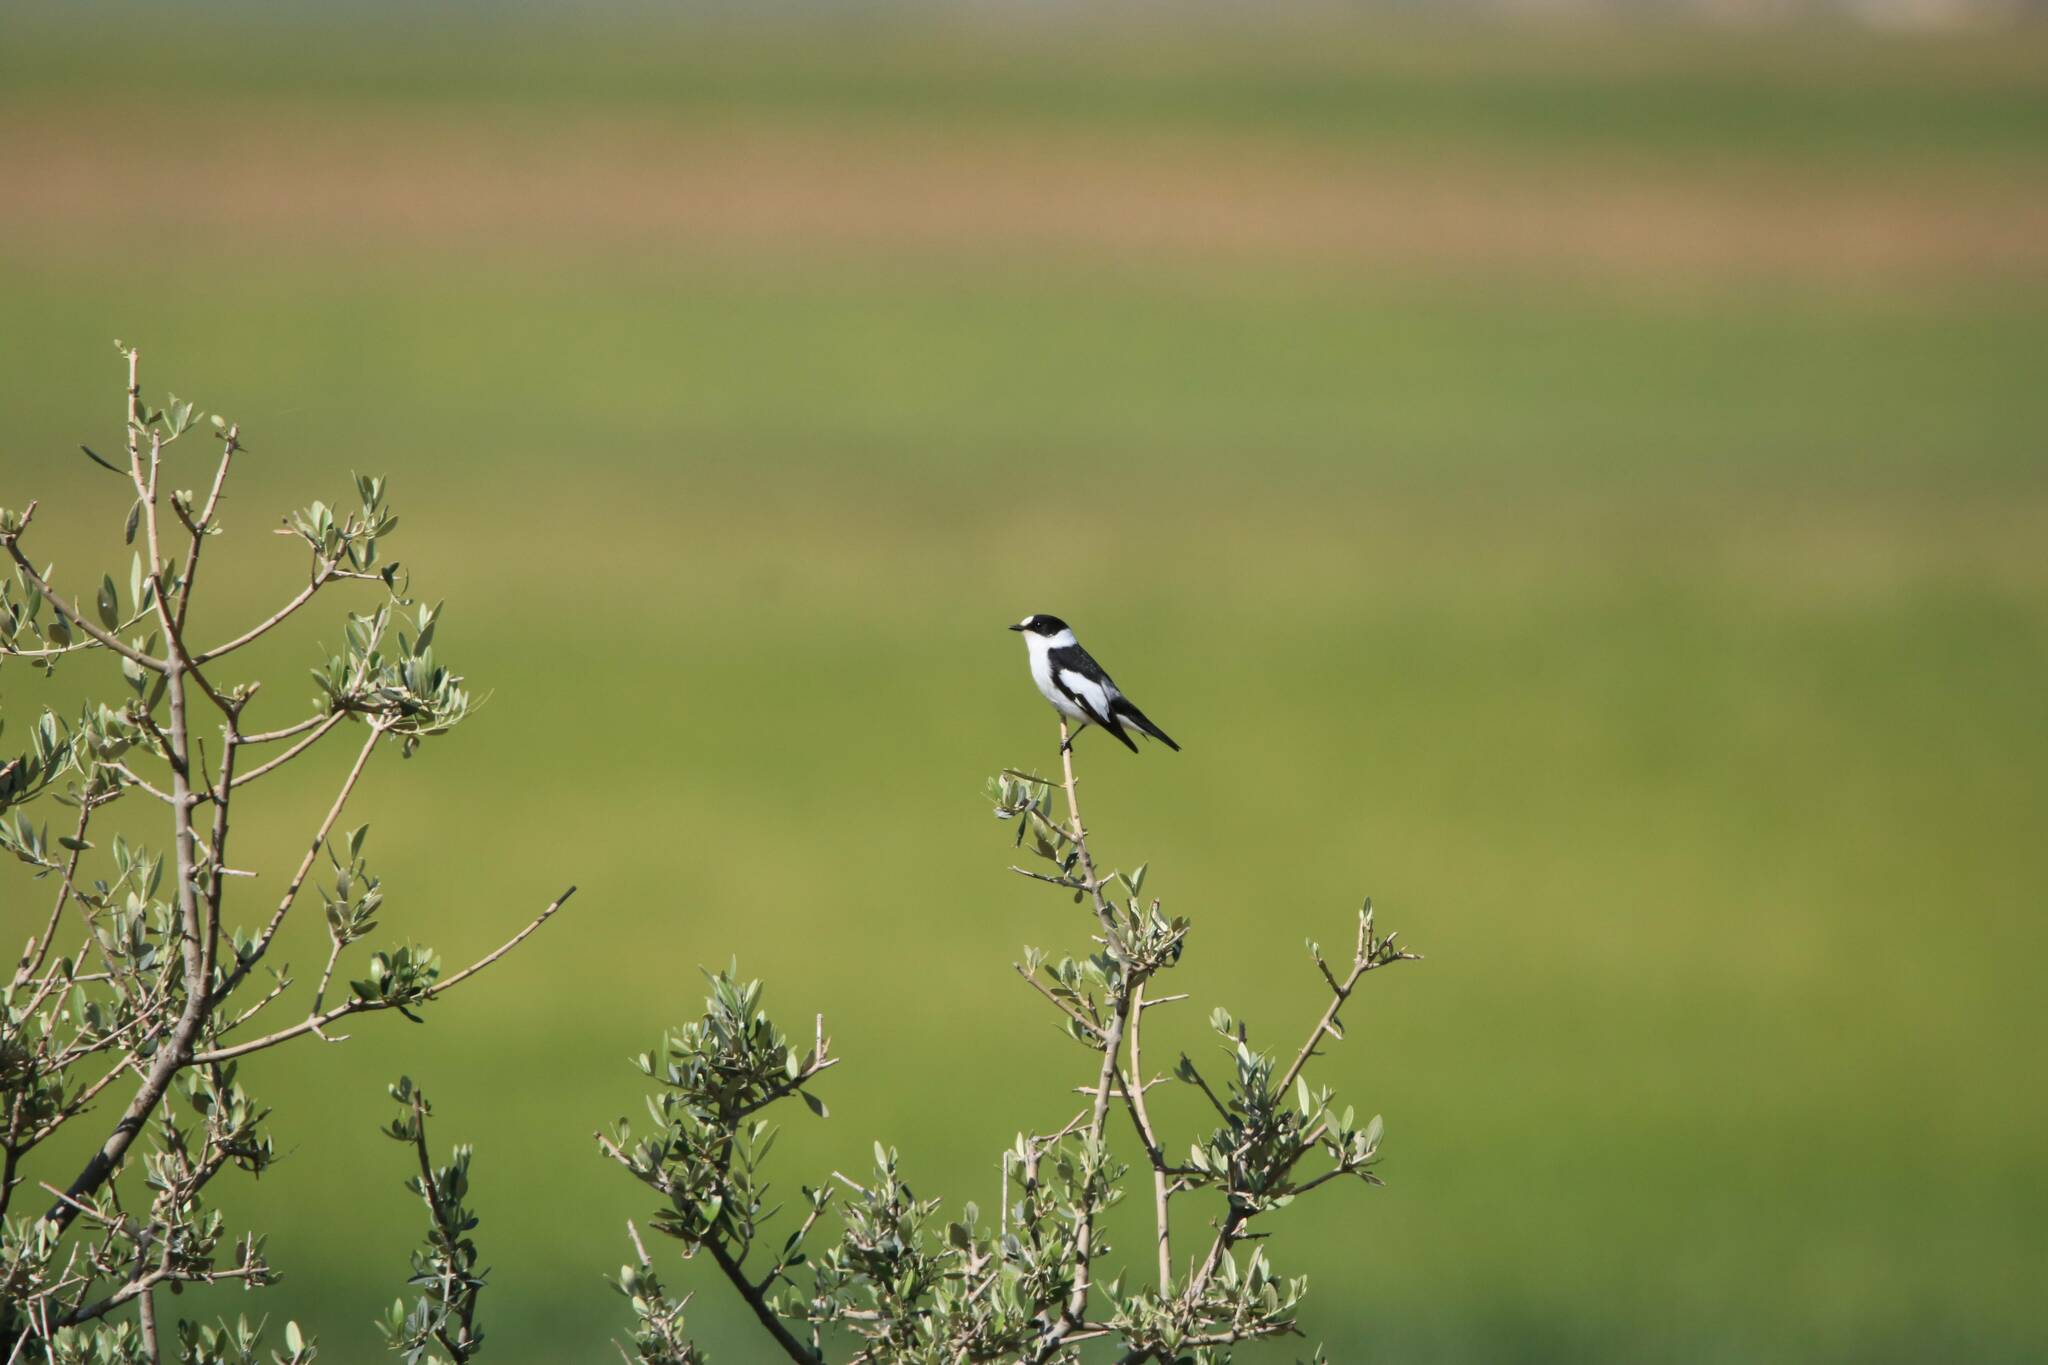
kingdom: Animalia
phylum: Chordata
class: Aves
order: Passeriformes
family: Muscicapidae
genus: Ficedula
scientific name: Ficedula albicollis
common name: Collared flycatcher
